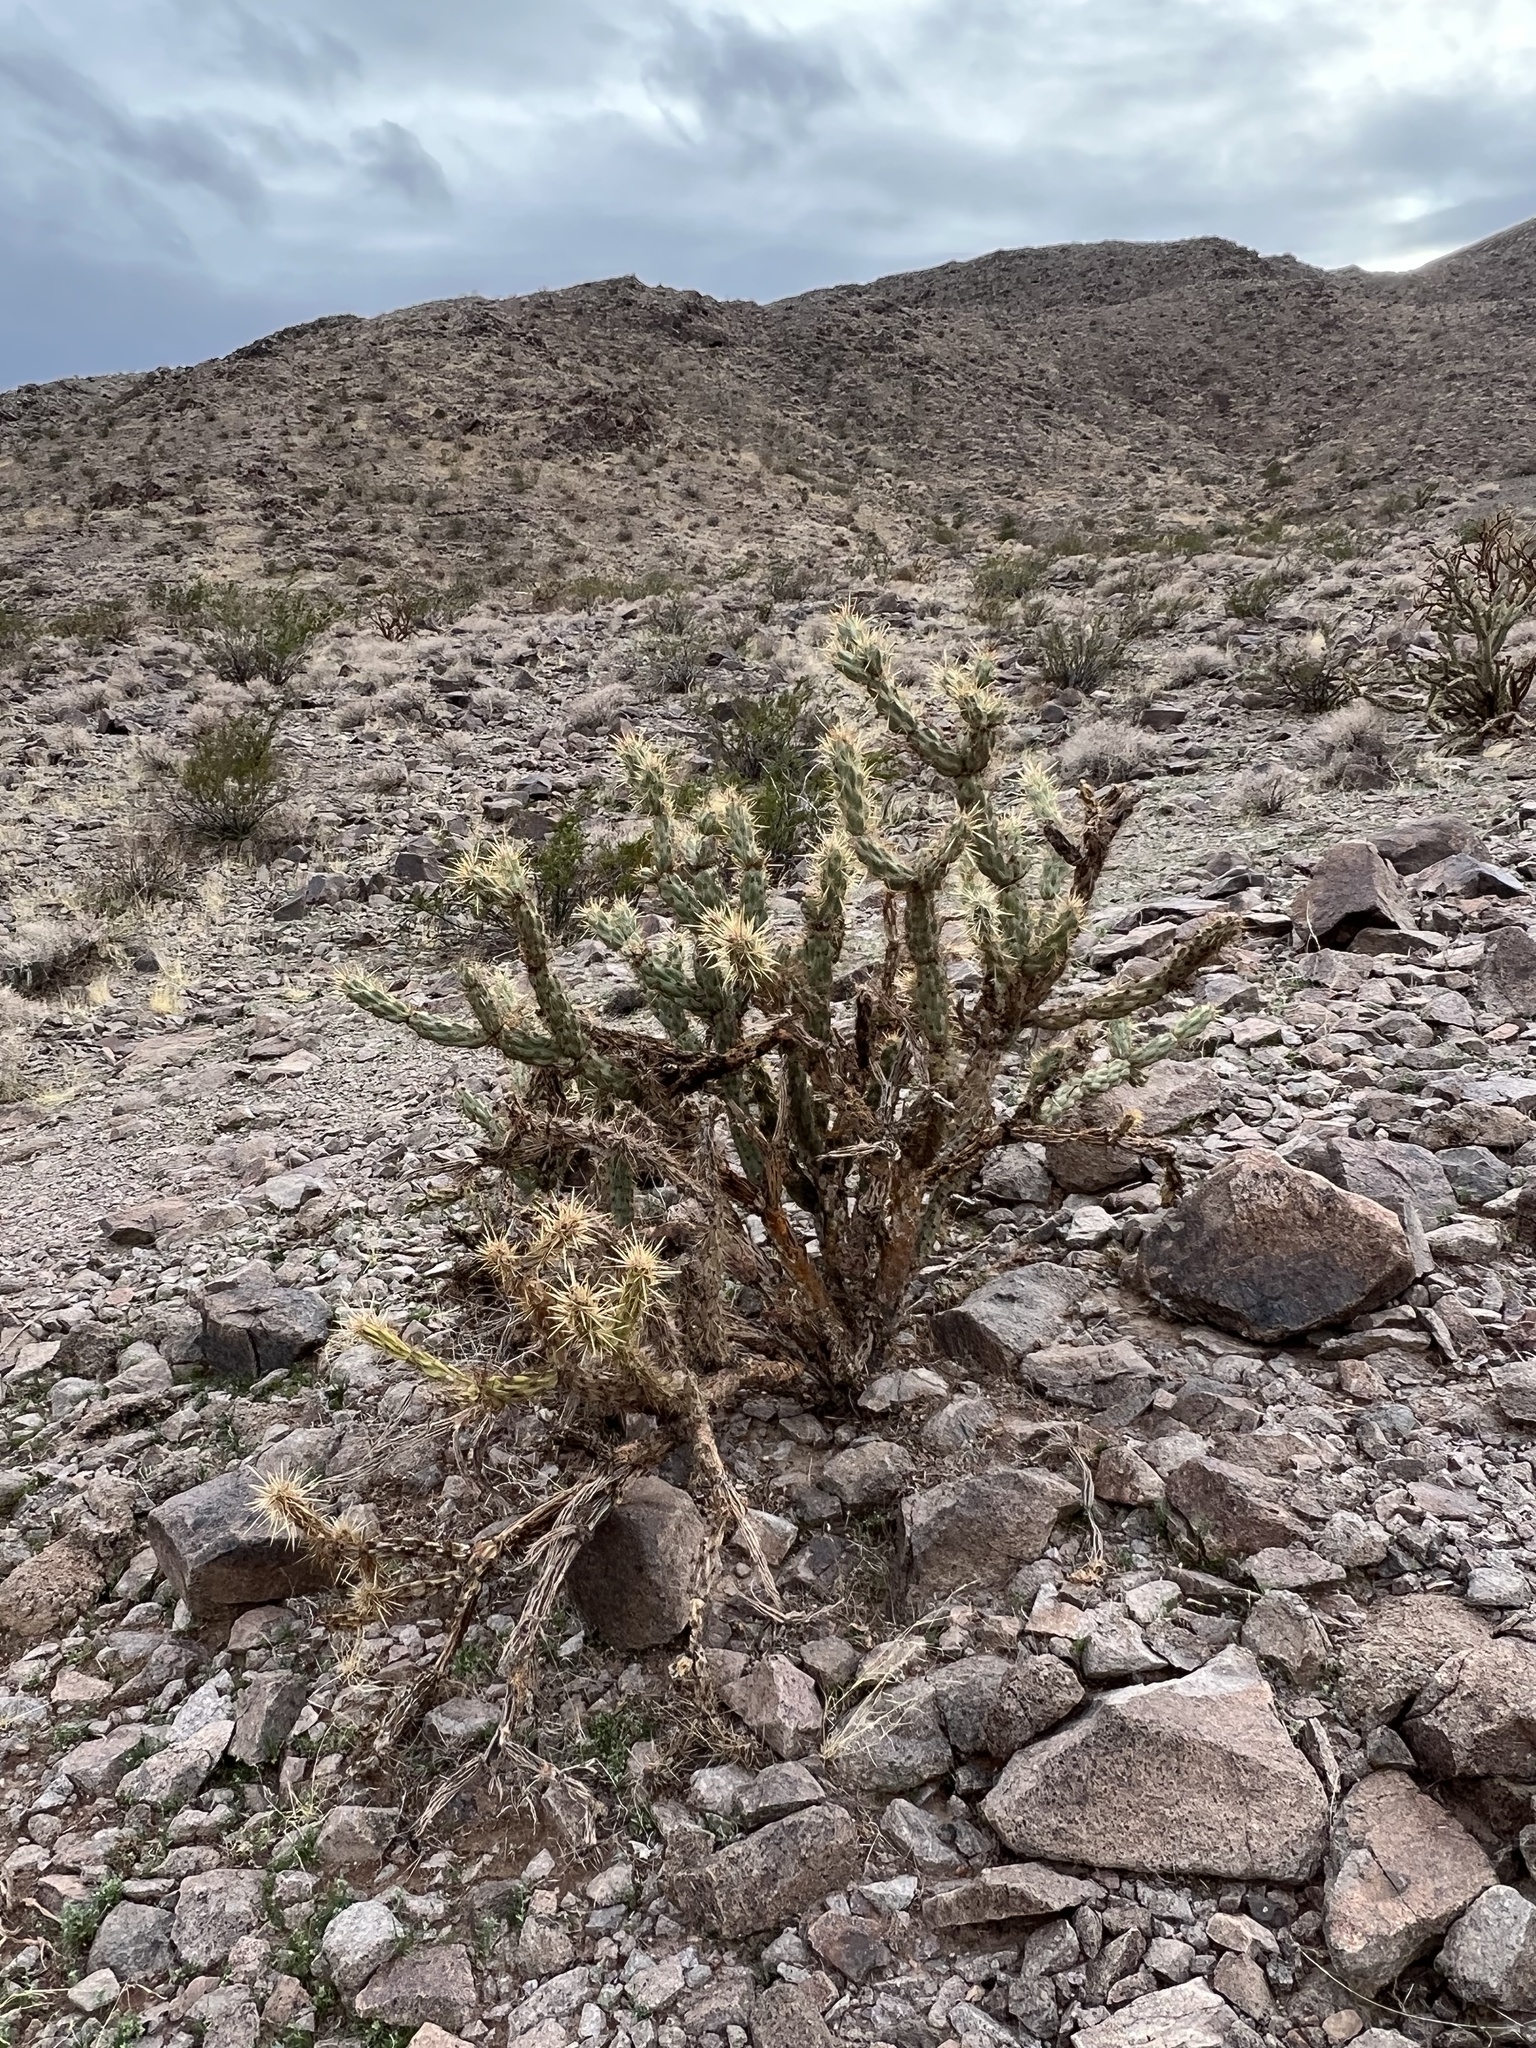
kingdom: Plantae
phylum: Tracheophyta
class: Magnoliopsida
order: Caryophyllales
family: Cactaceae
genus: Cylindropuntia
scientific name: Cylindropuntia acanthocarpa
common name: Buckhorn cholla
